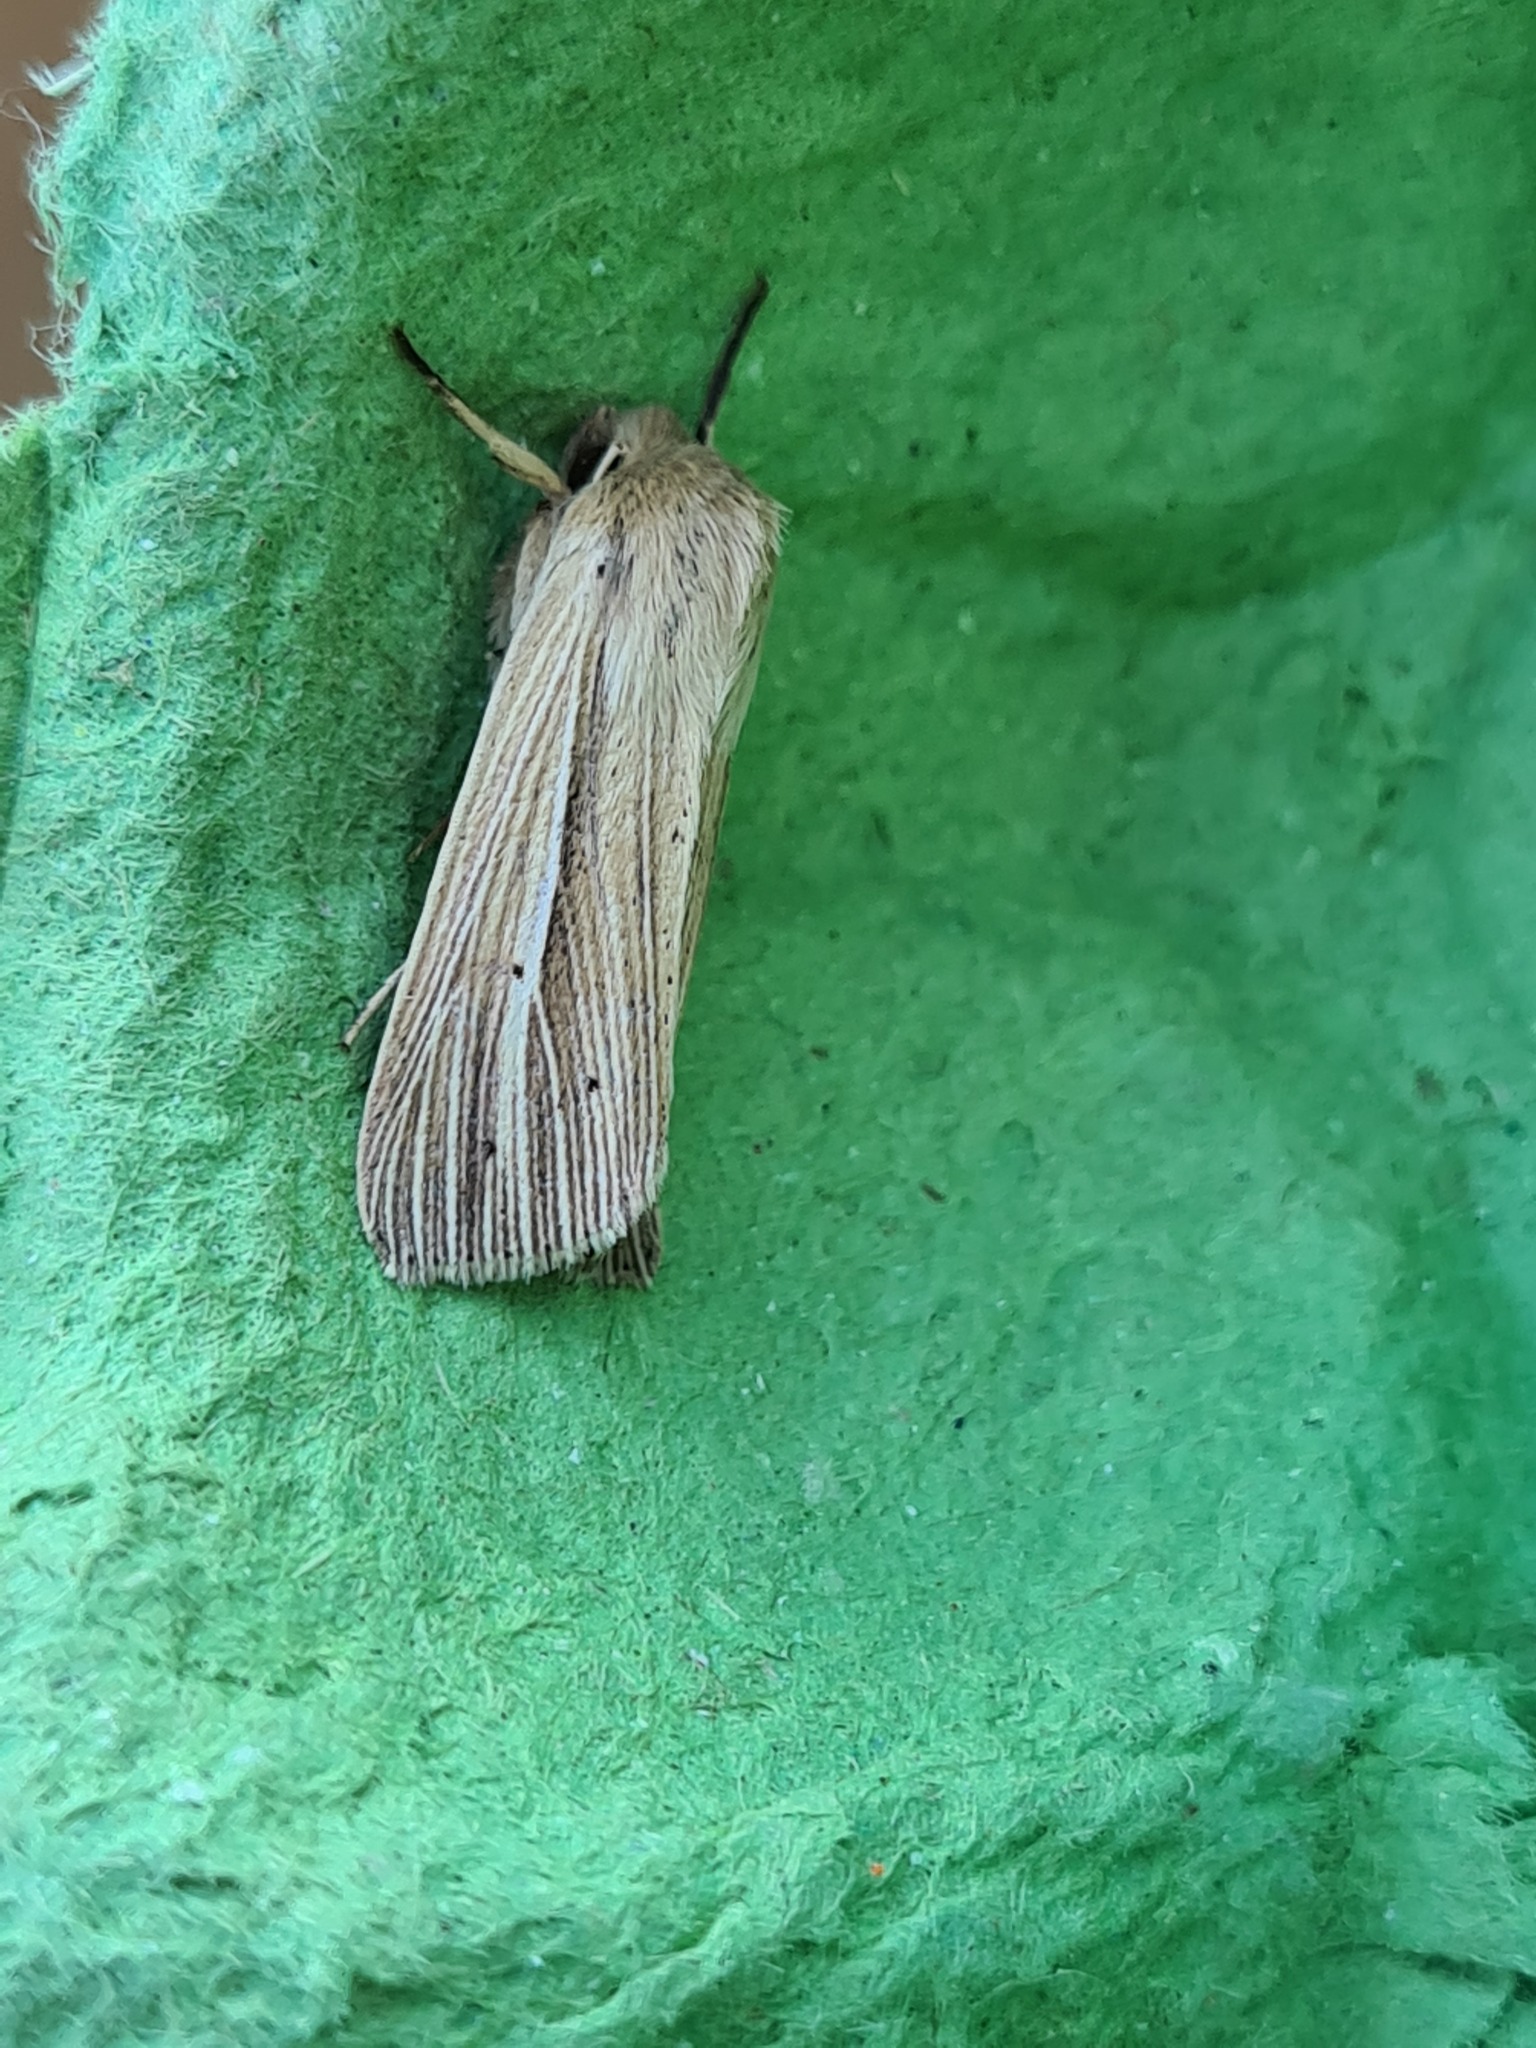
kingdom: Animalia
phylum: Arthropoda
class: Insecta
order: Lepidoptera
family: Noctuidae
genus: Mythimna
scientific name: Mythimna impura
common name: Smoky wainscot
